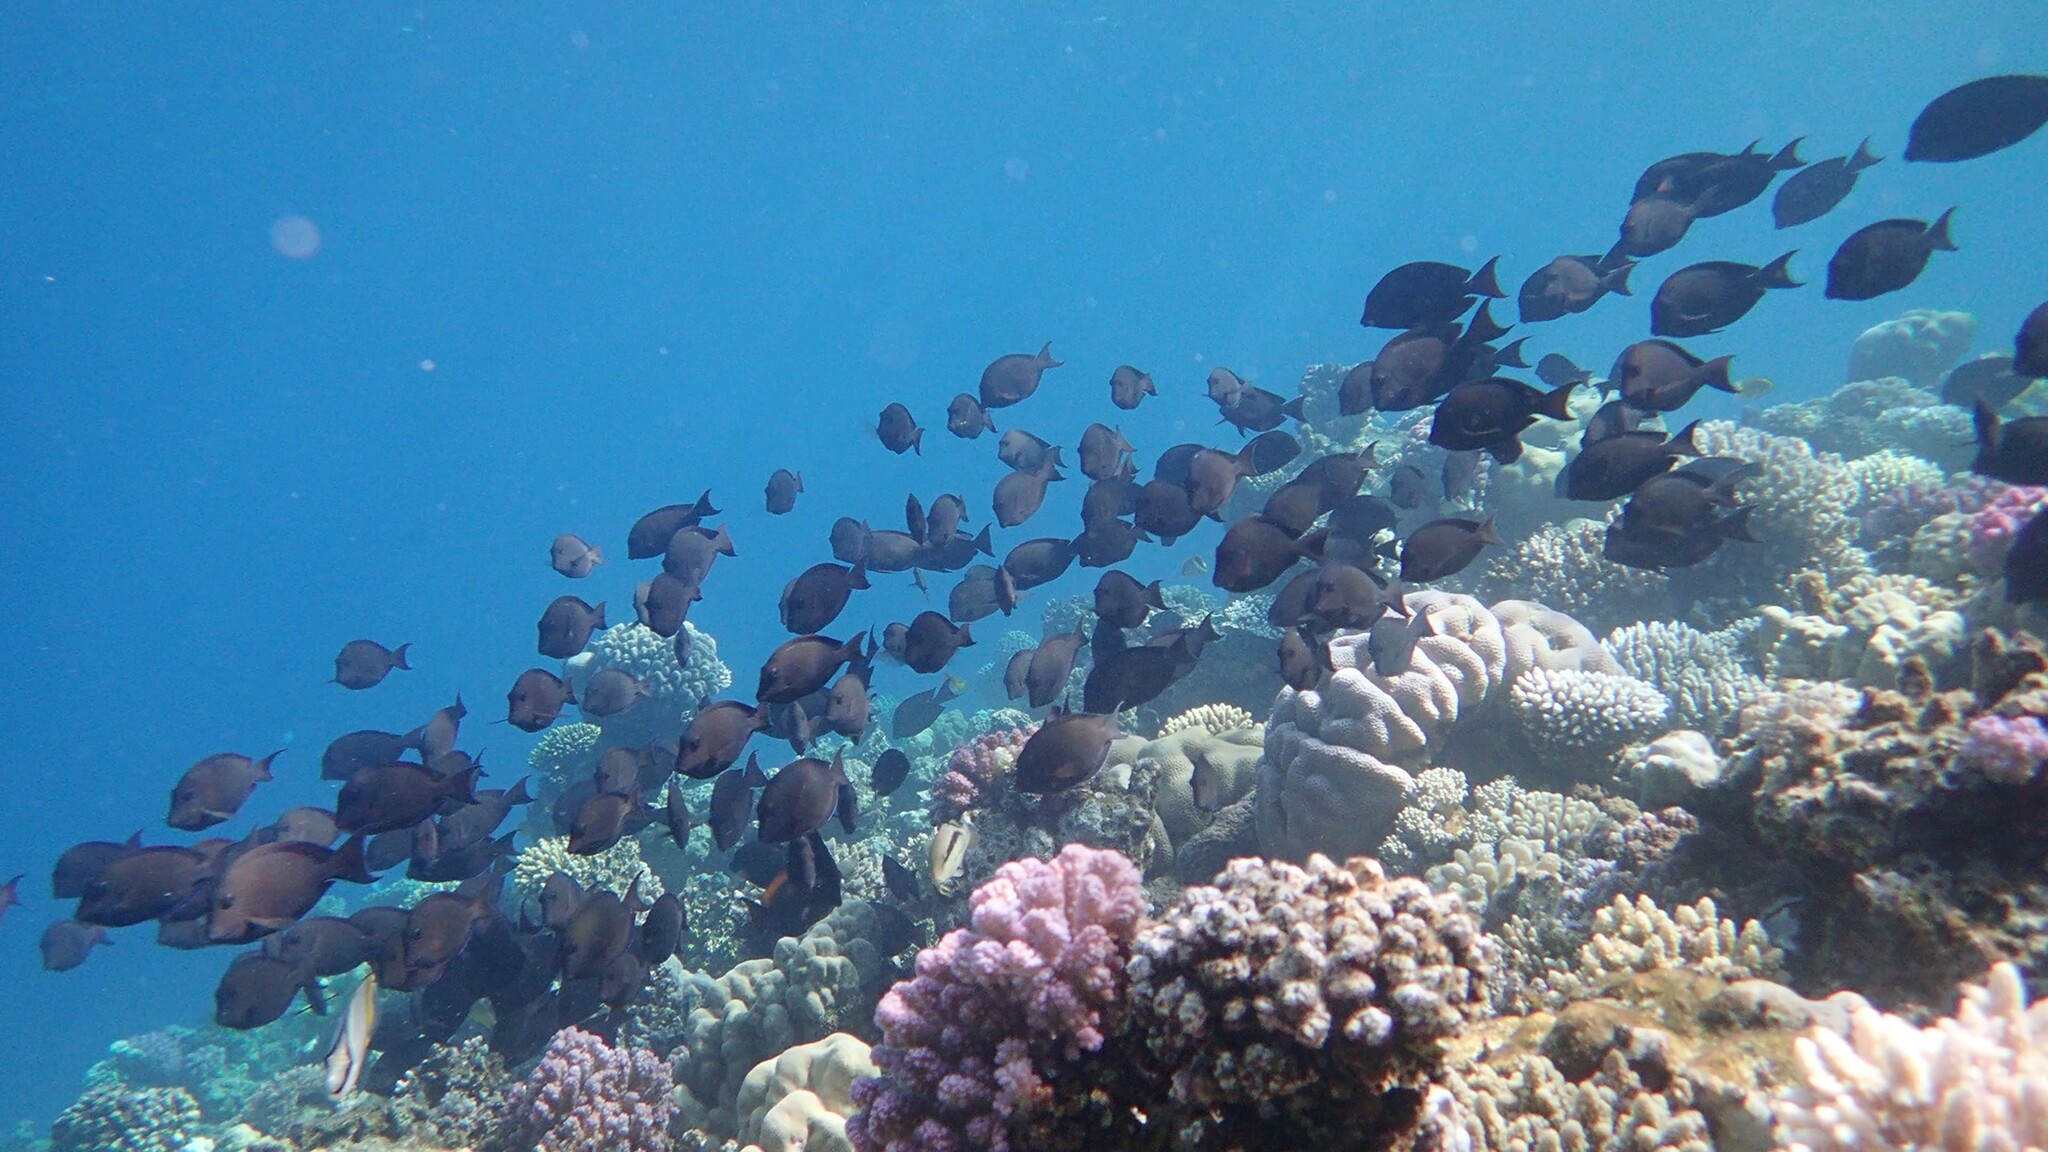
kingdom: Animalia
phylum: Chordata
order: Perciformes
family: Acanthuridae
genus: Acanthurus
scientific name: Acanthurus nigrofuscus
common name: Blackspot surgeonfish
